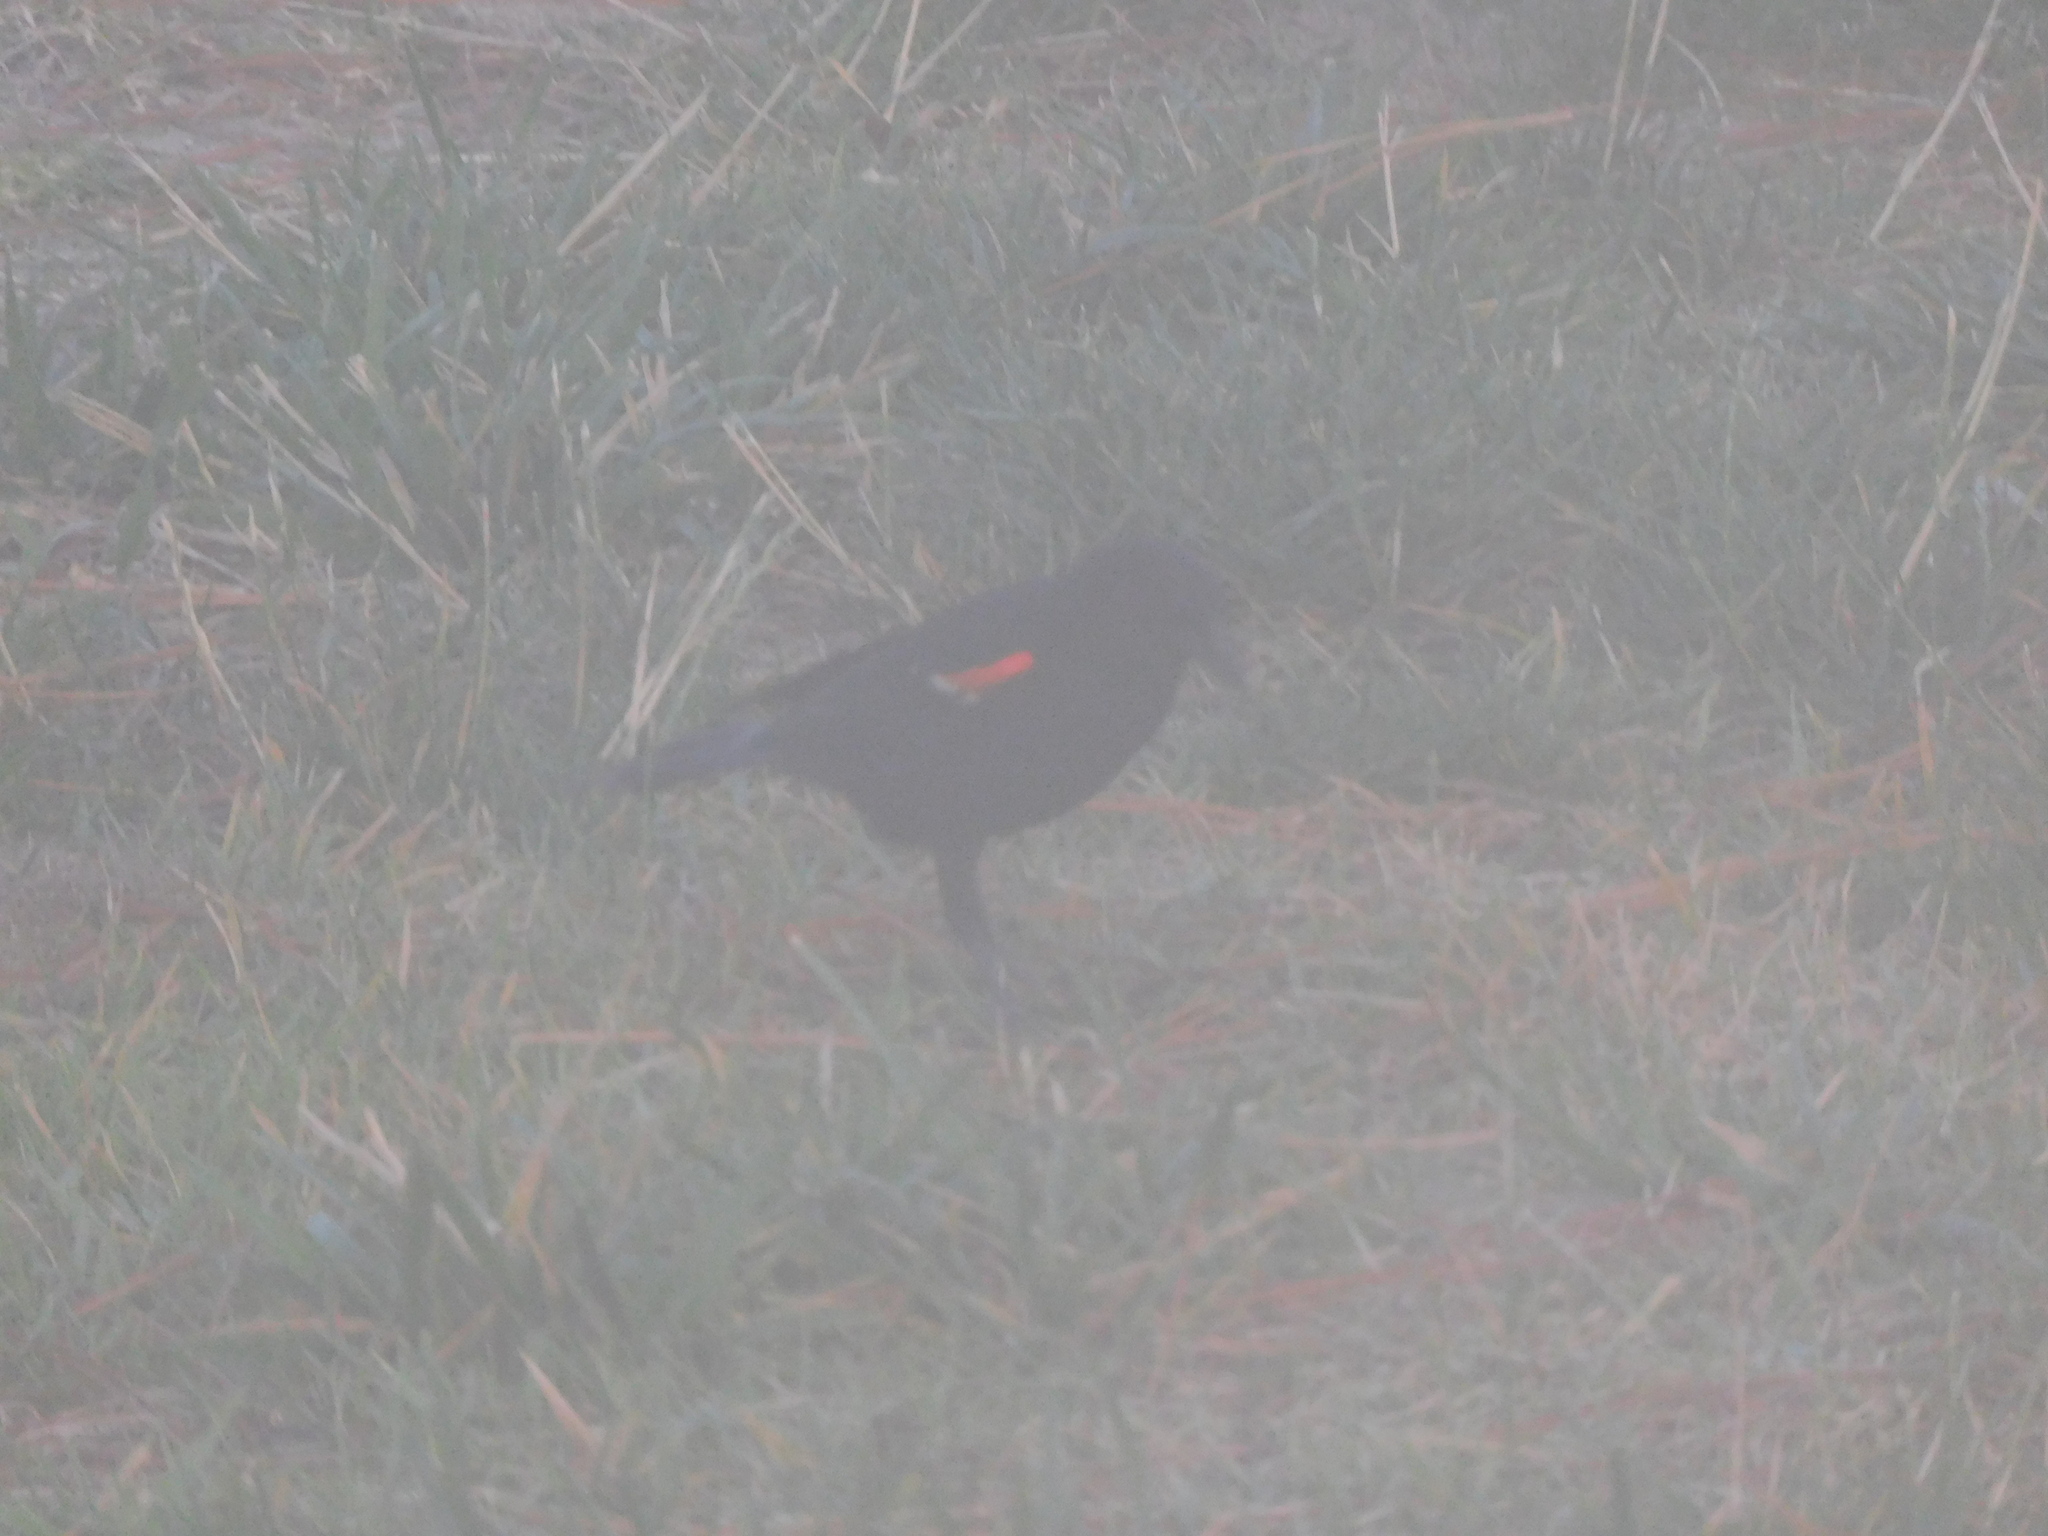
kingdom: Animalia
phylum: Chordata
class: Aves
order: Passeriformes
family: Icteridae
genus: Agelaius
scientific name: Agelaius phoeniceus
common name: Red-winged blackbird
